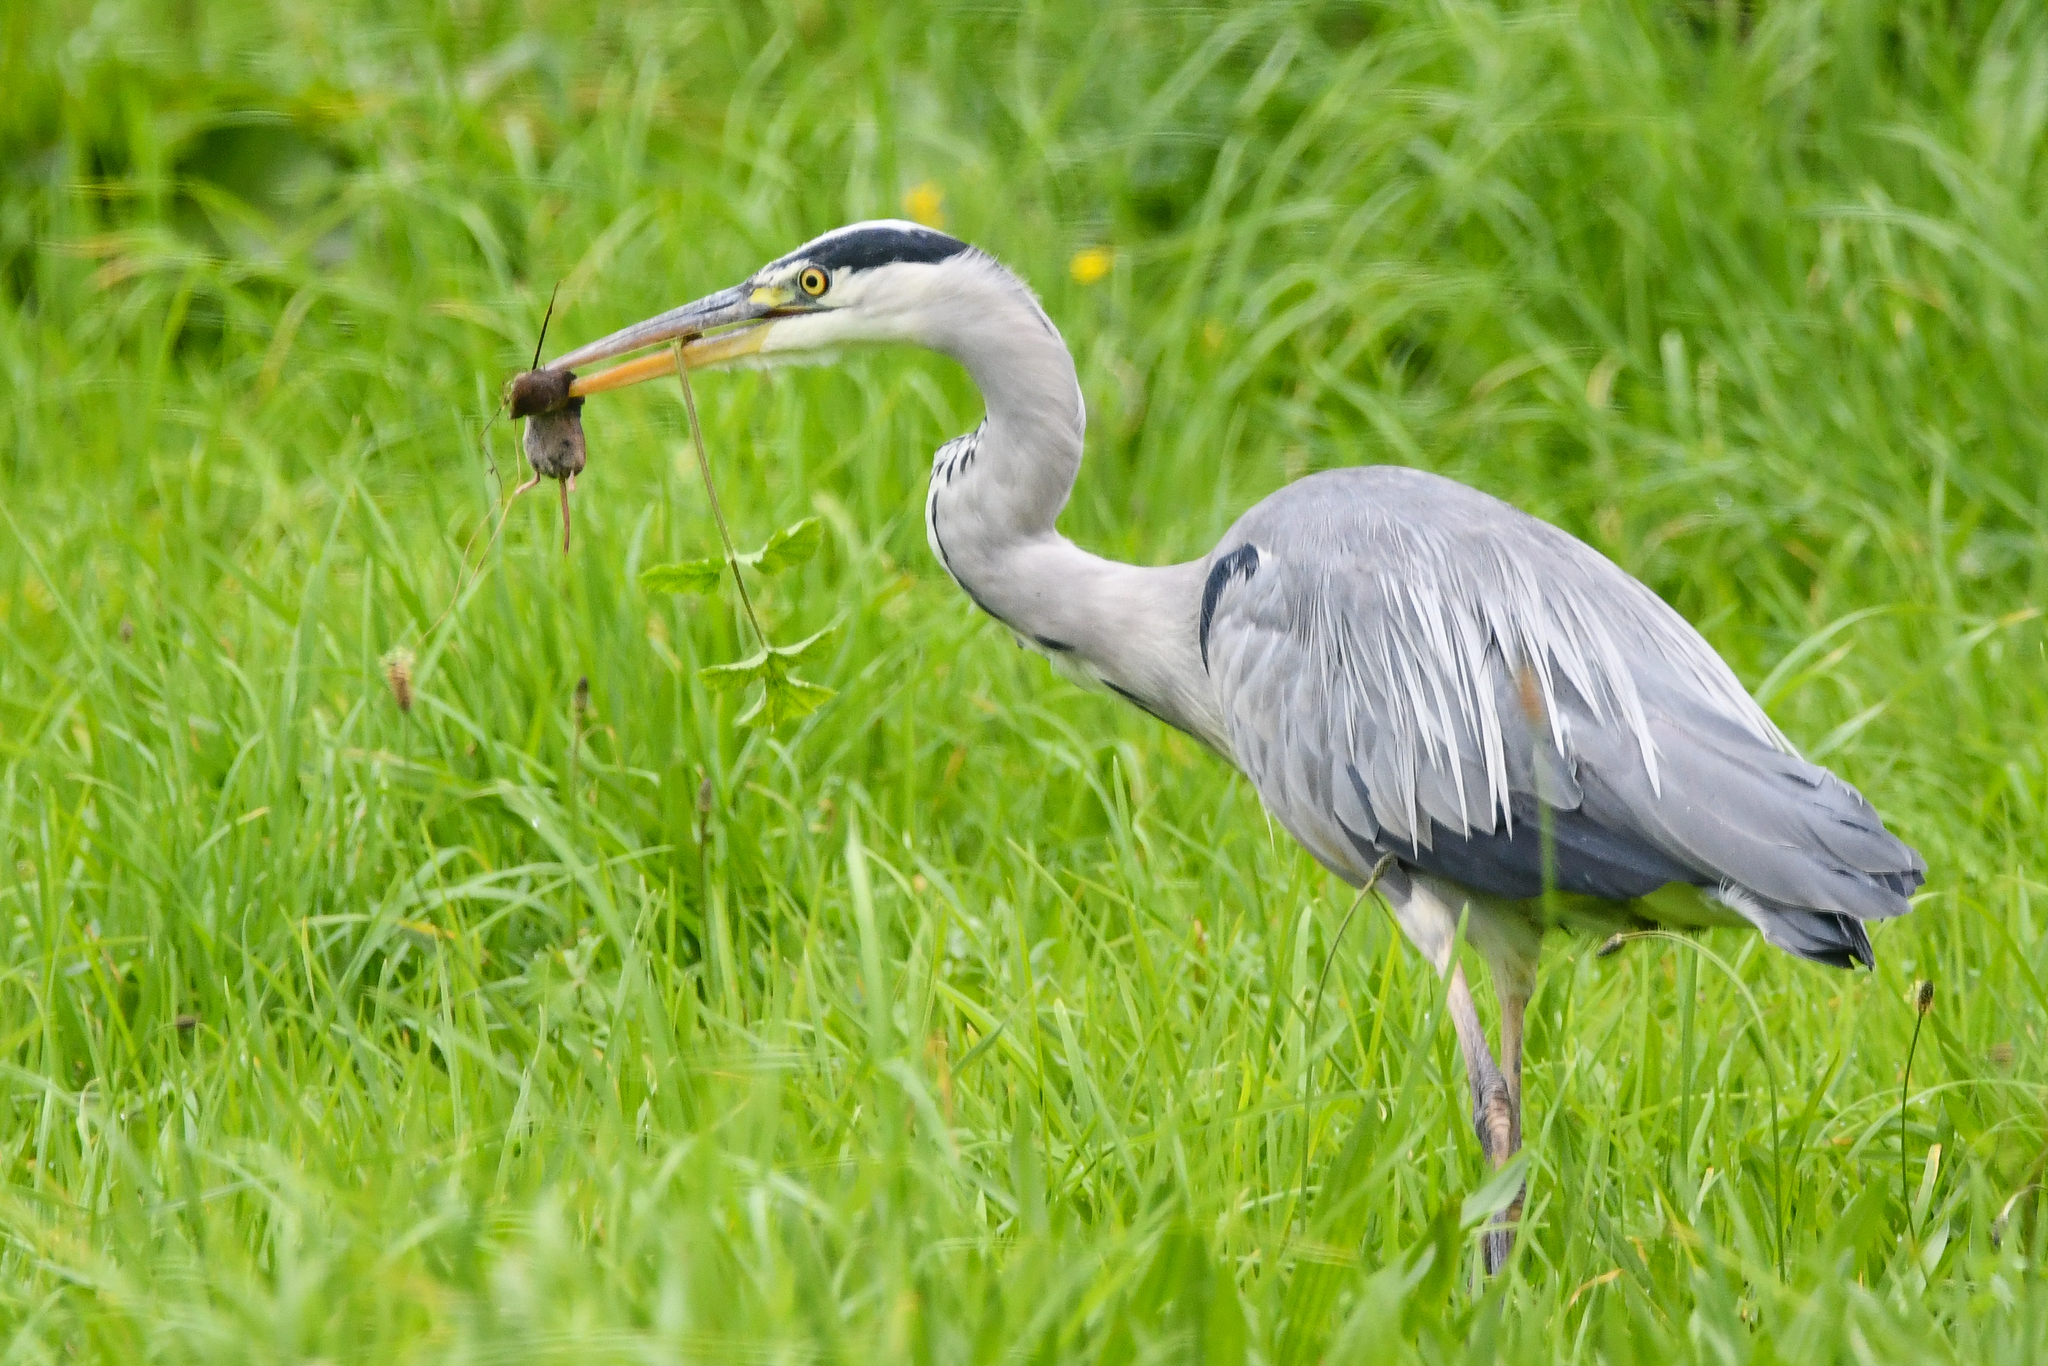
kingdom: Animalia
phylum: Chordata
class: Aves
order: Pelecaniformes
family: Ardeidae
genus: Ardea
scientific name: Ardea cinerea
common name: Grey heron
